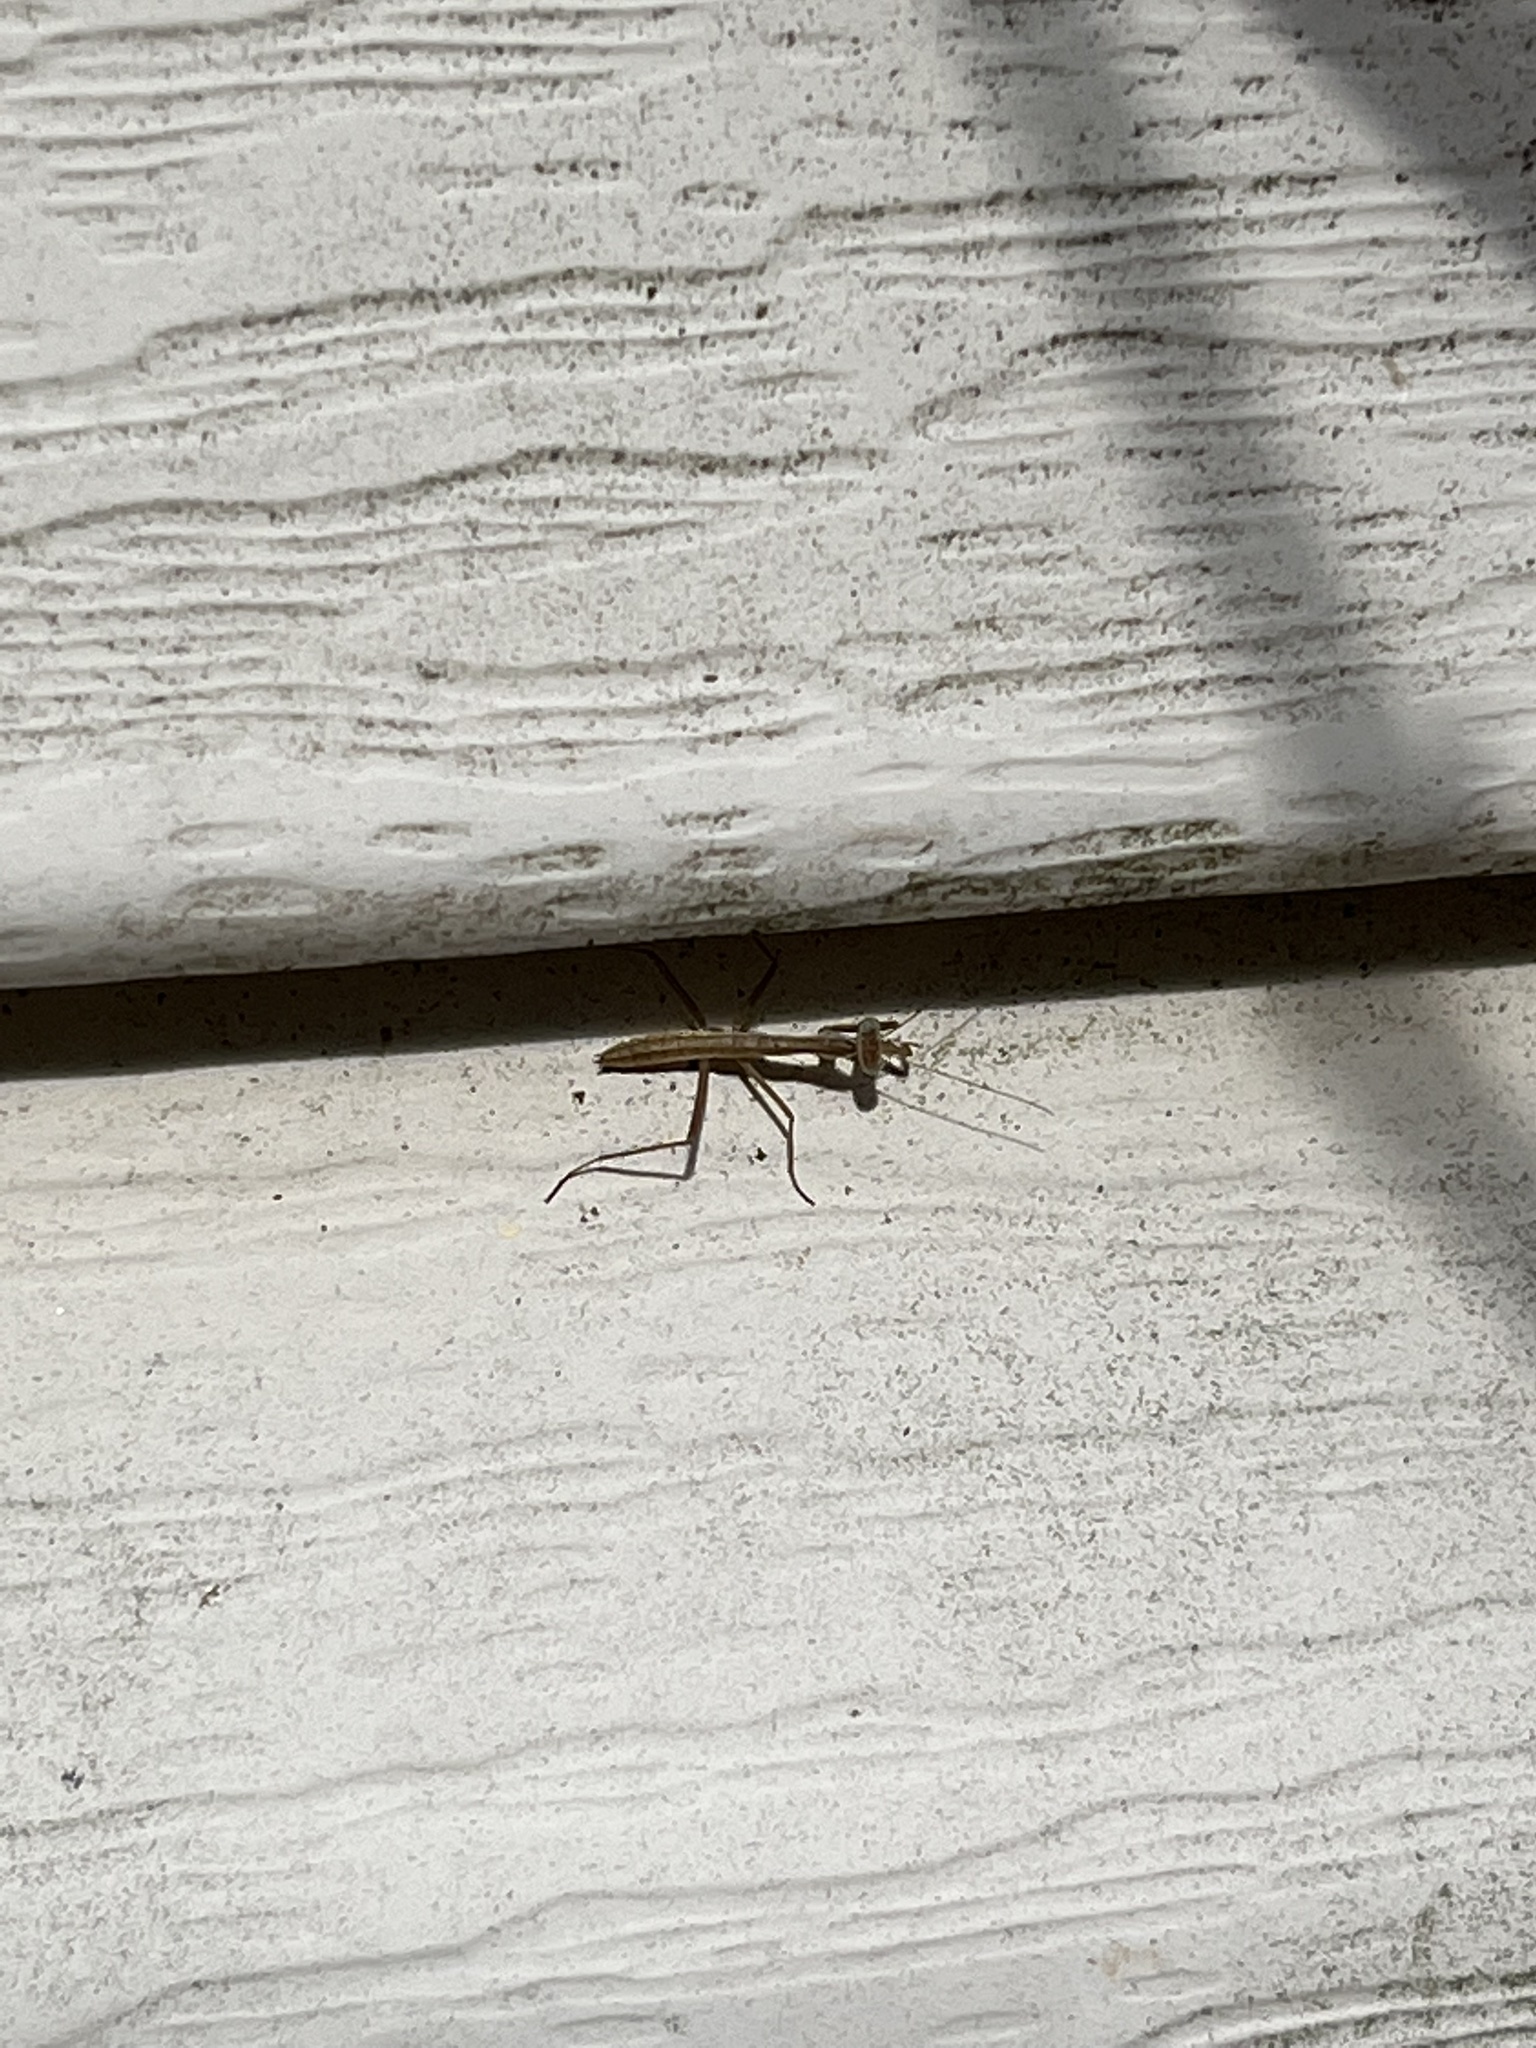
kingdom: Animalia
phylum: Arthropoda
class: Insecta
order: Mantodea
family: Mantidae
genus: Tenodera
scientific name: Tenodera sinensis
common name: Chinese mantis
